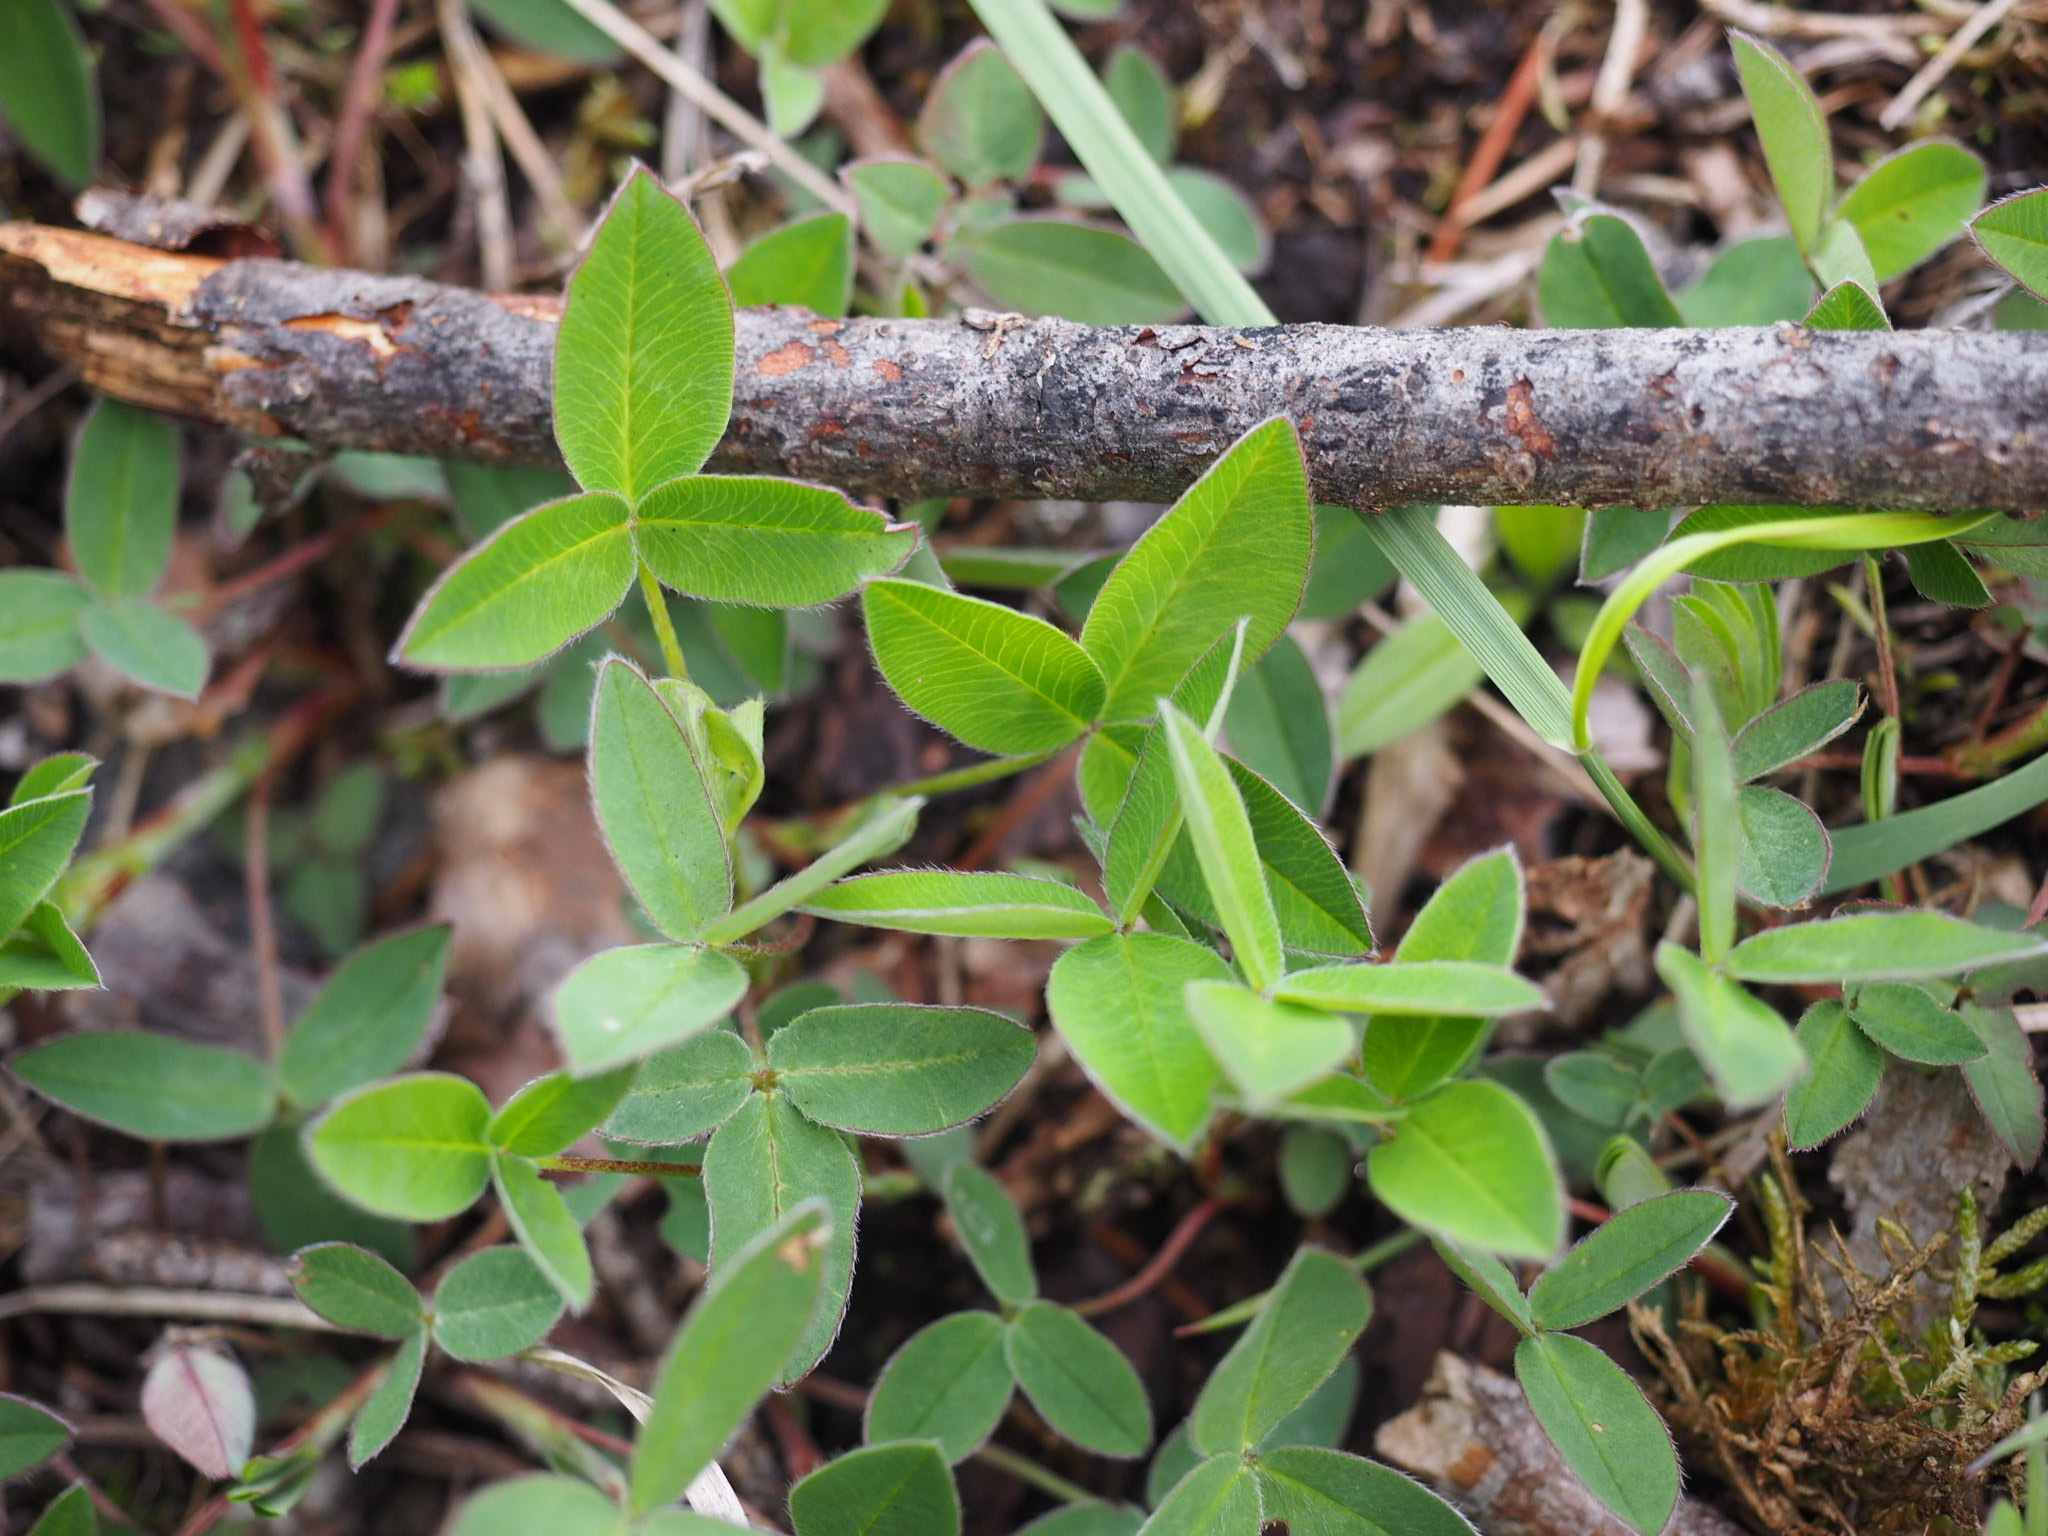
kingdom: Plantae
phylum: Tracheophyta
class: Magnoliopsida
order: Fabales
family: Fabaceae
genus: Trifolium
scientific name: Trifolium medium
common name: Zigzag clover
